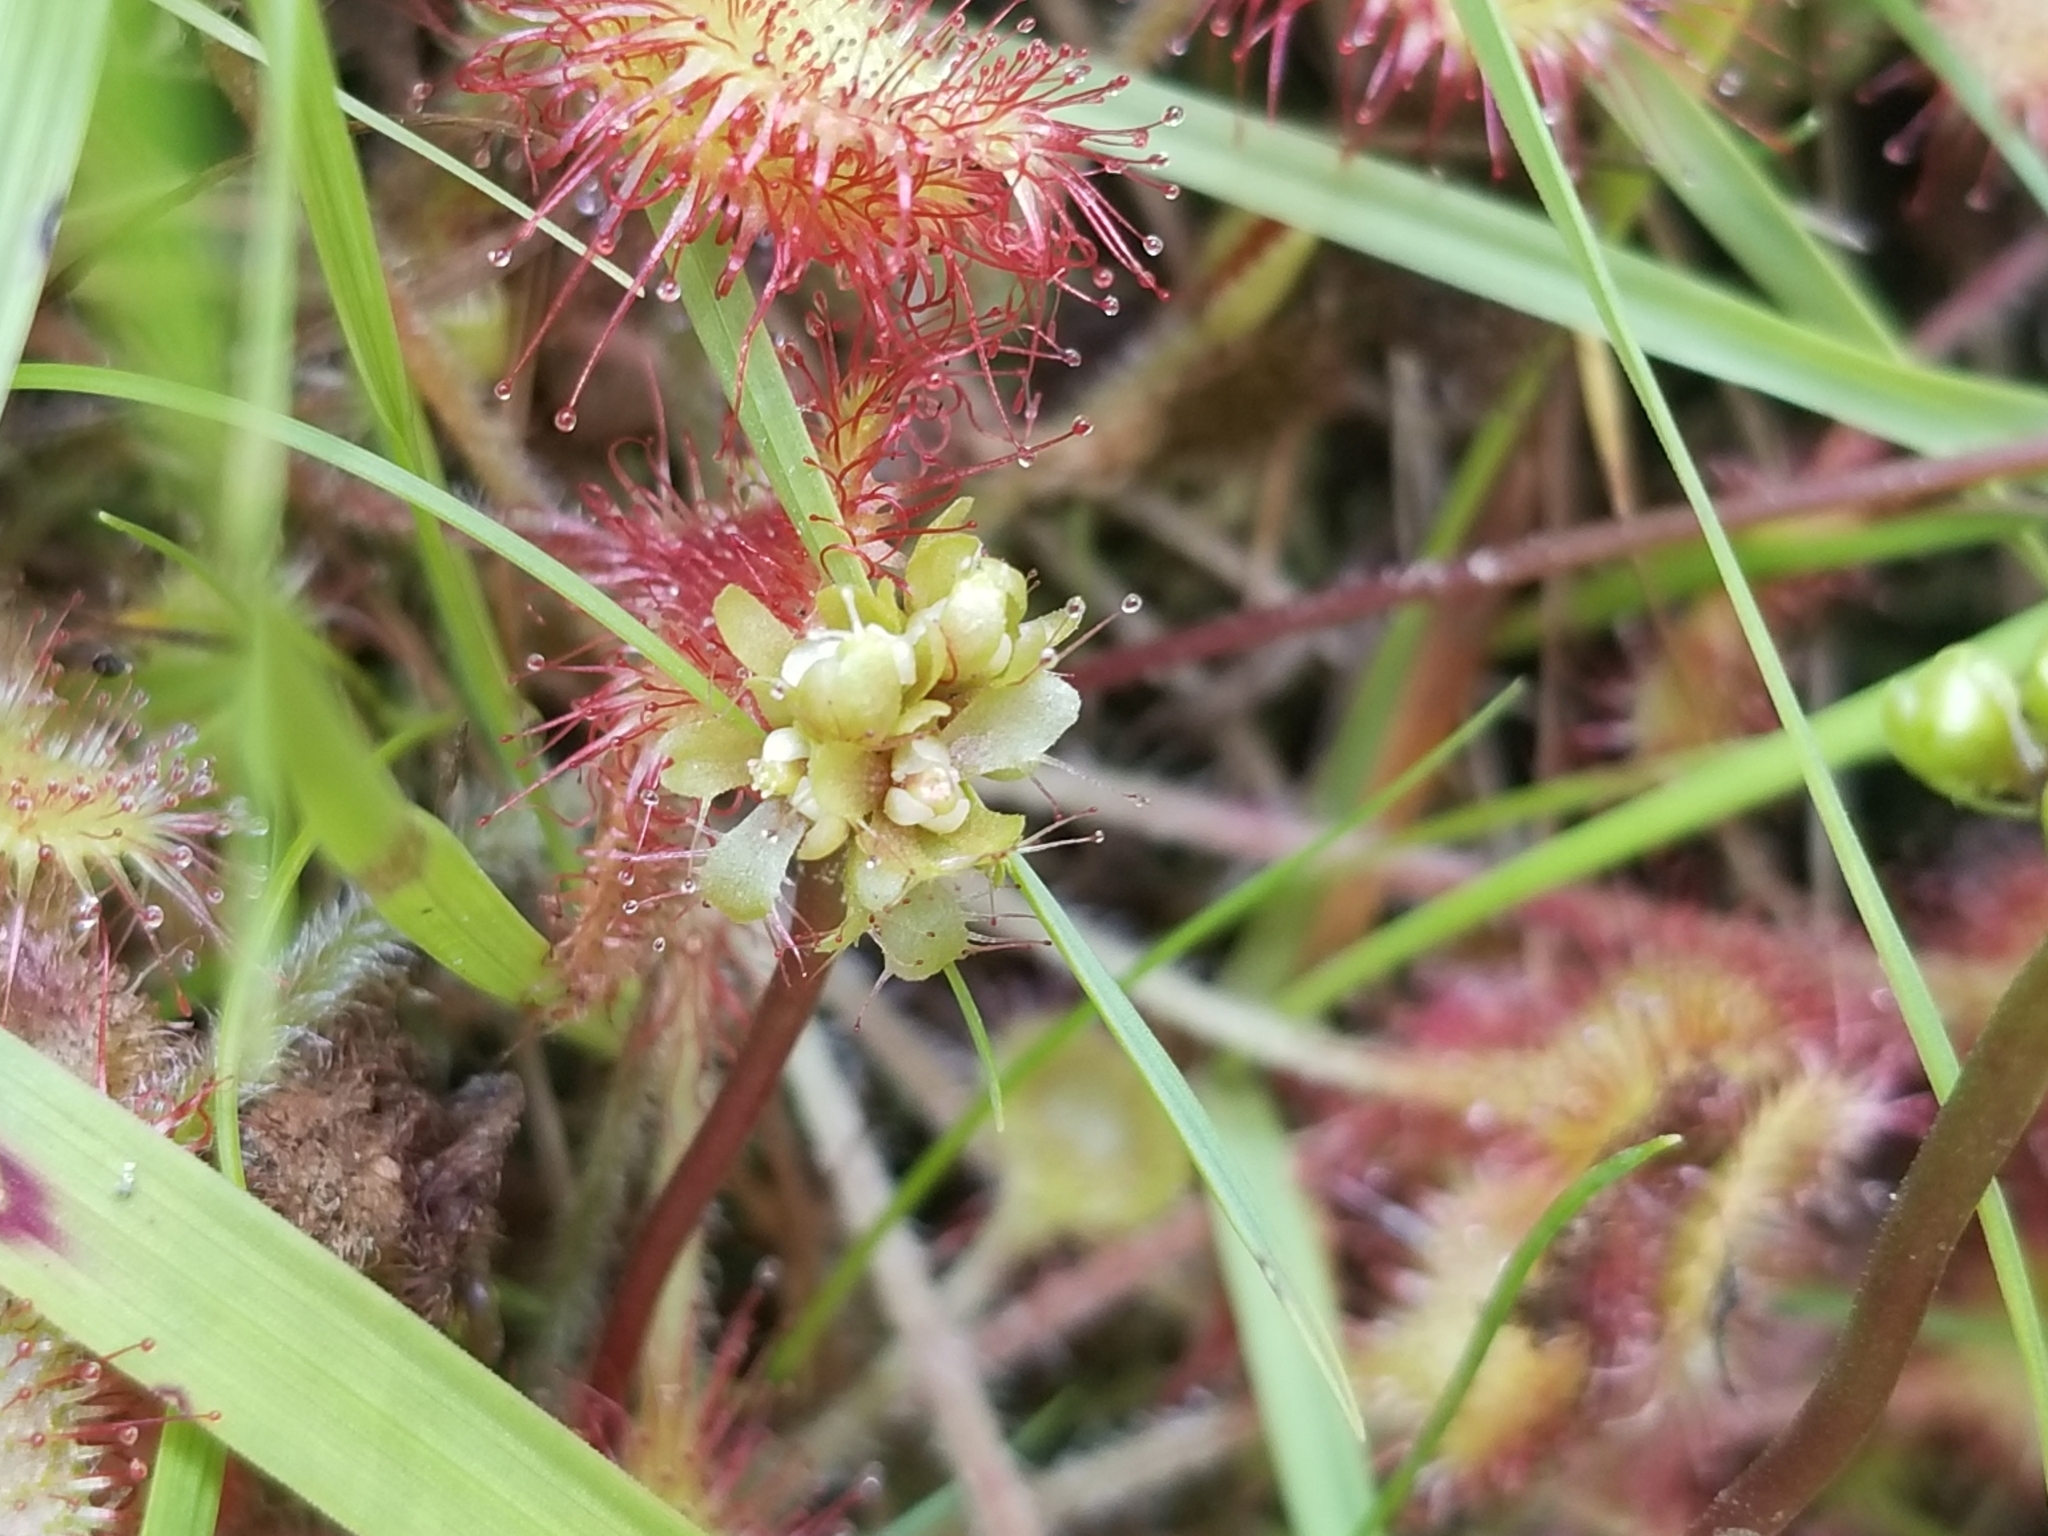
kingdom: Plantae
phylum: Tracheophyta
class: Magnoliopsida
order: Caryophyllales
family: Droseraceae
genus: Drosera
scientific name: Drosera rotundifolia
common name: Round-leaved sundew
